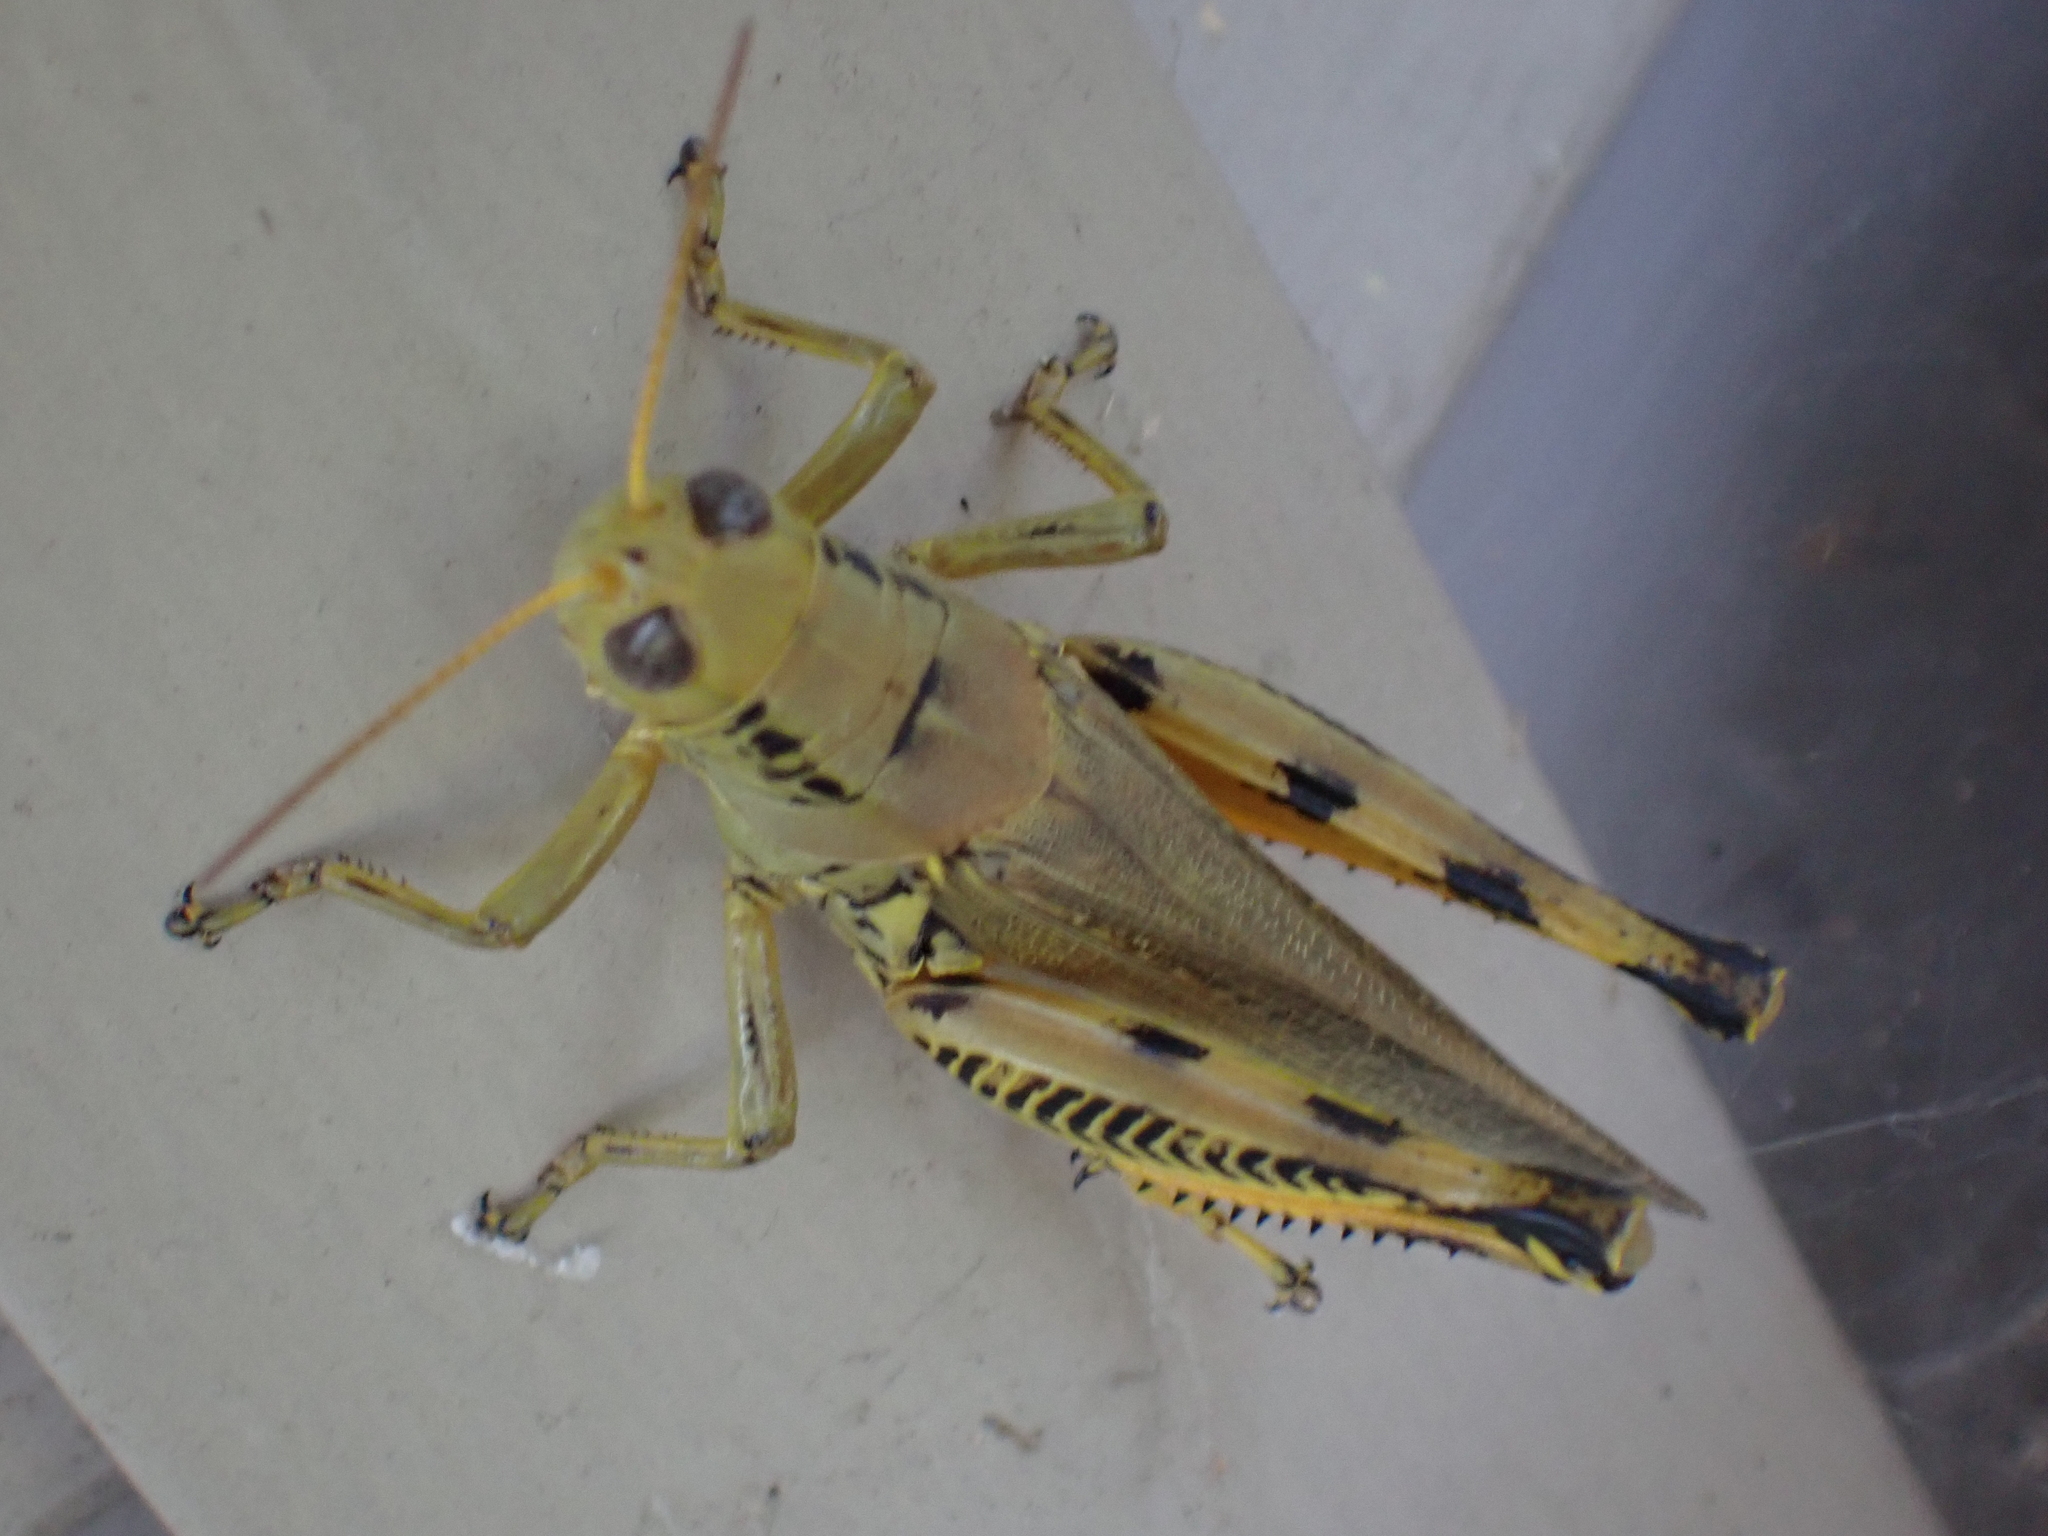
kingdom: Animalia
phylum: Arthropoda
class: Insecta
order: Orthoptera
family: Acrididae
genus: Melanoplus
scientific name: Melanoplus differentialis
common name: Differential grasshopper
